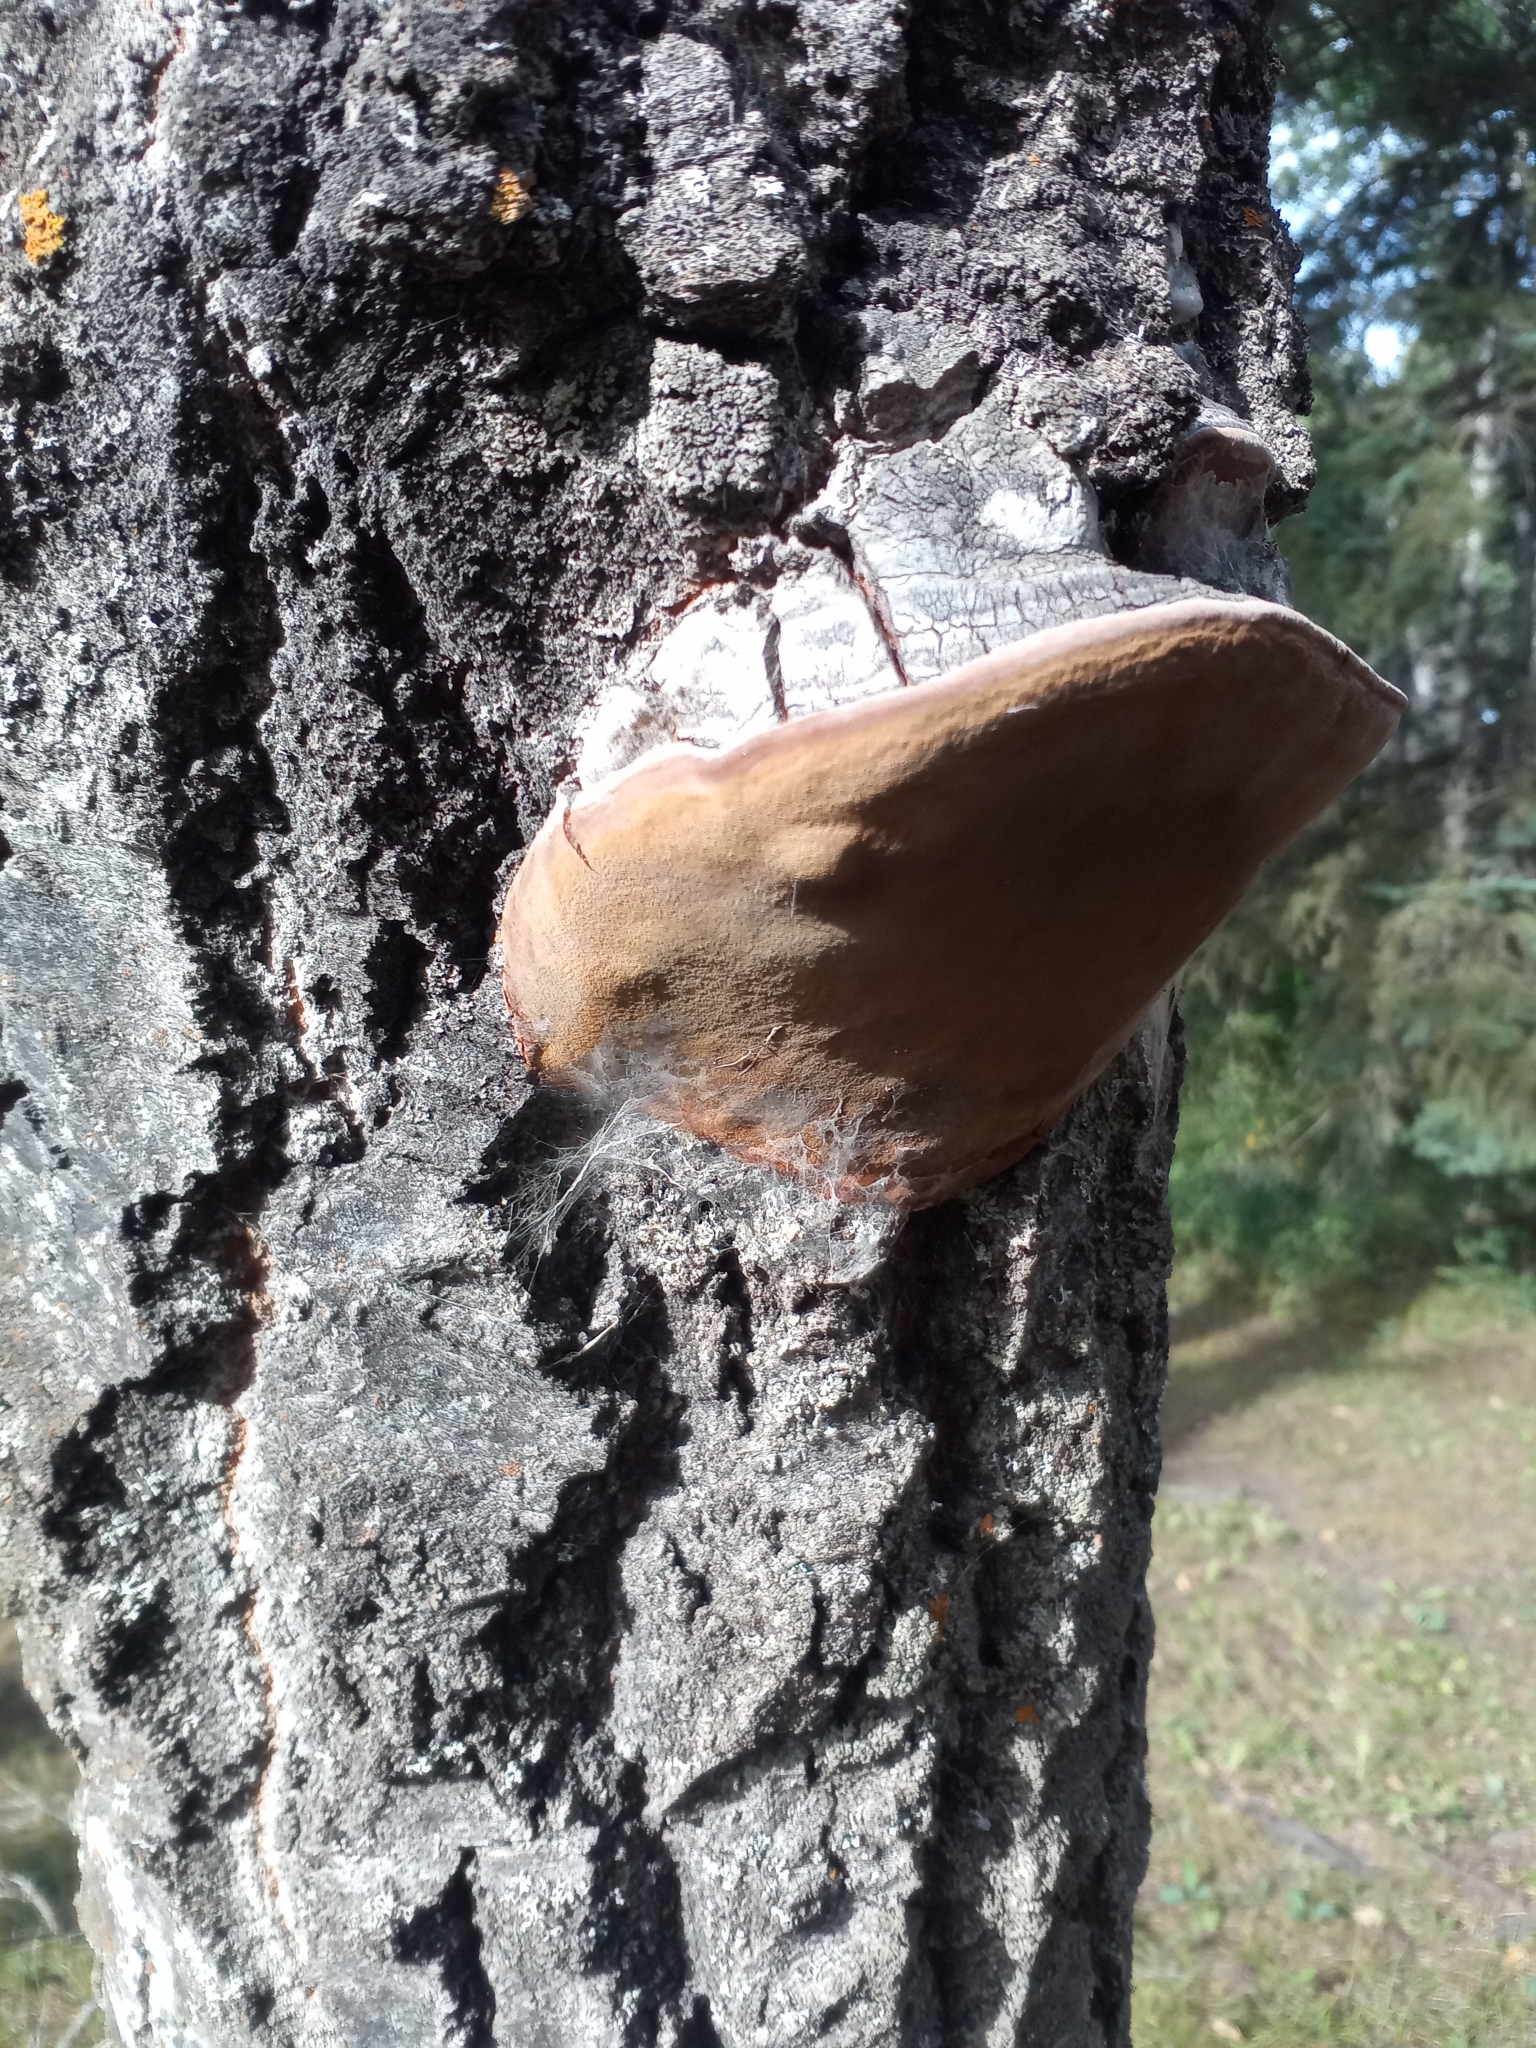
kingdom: Fungi
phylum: Basidiomycota
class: Agaricomycetes
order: Hymenochaetales
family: Hymenochaetaceae
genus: Phellinus
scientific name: Phellinus tremulae
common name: Aspen bracket
